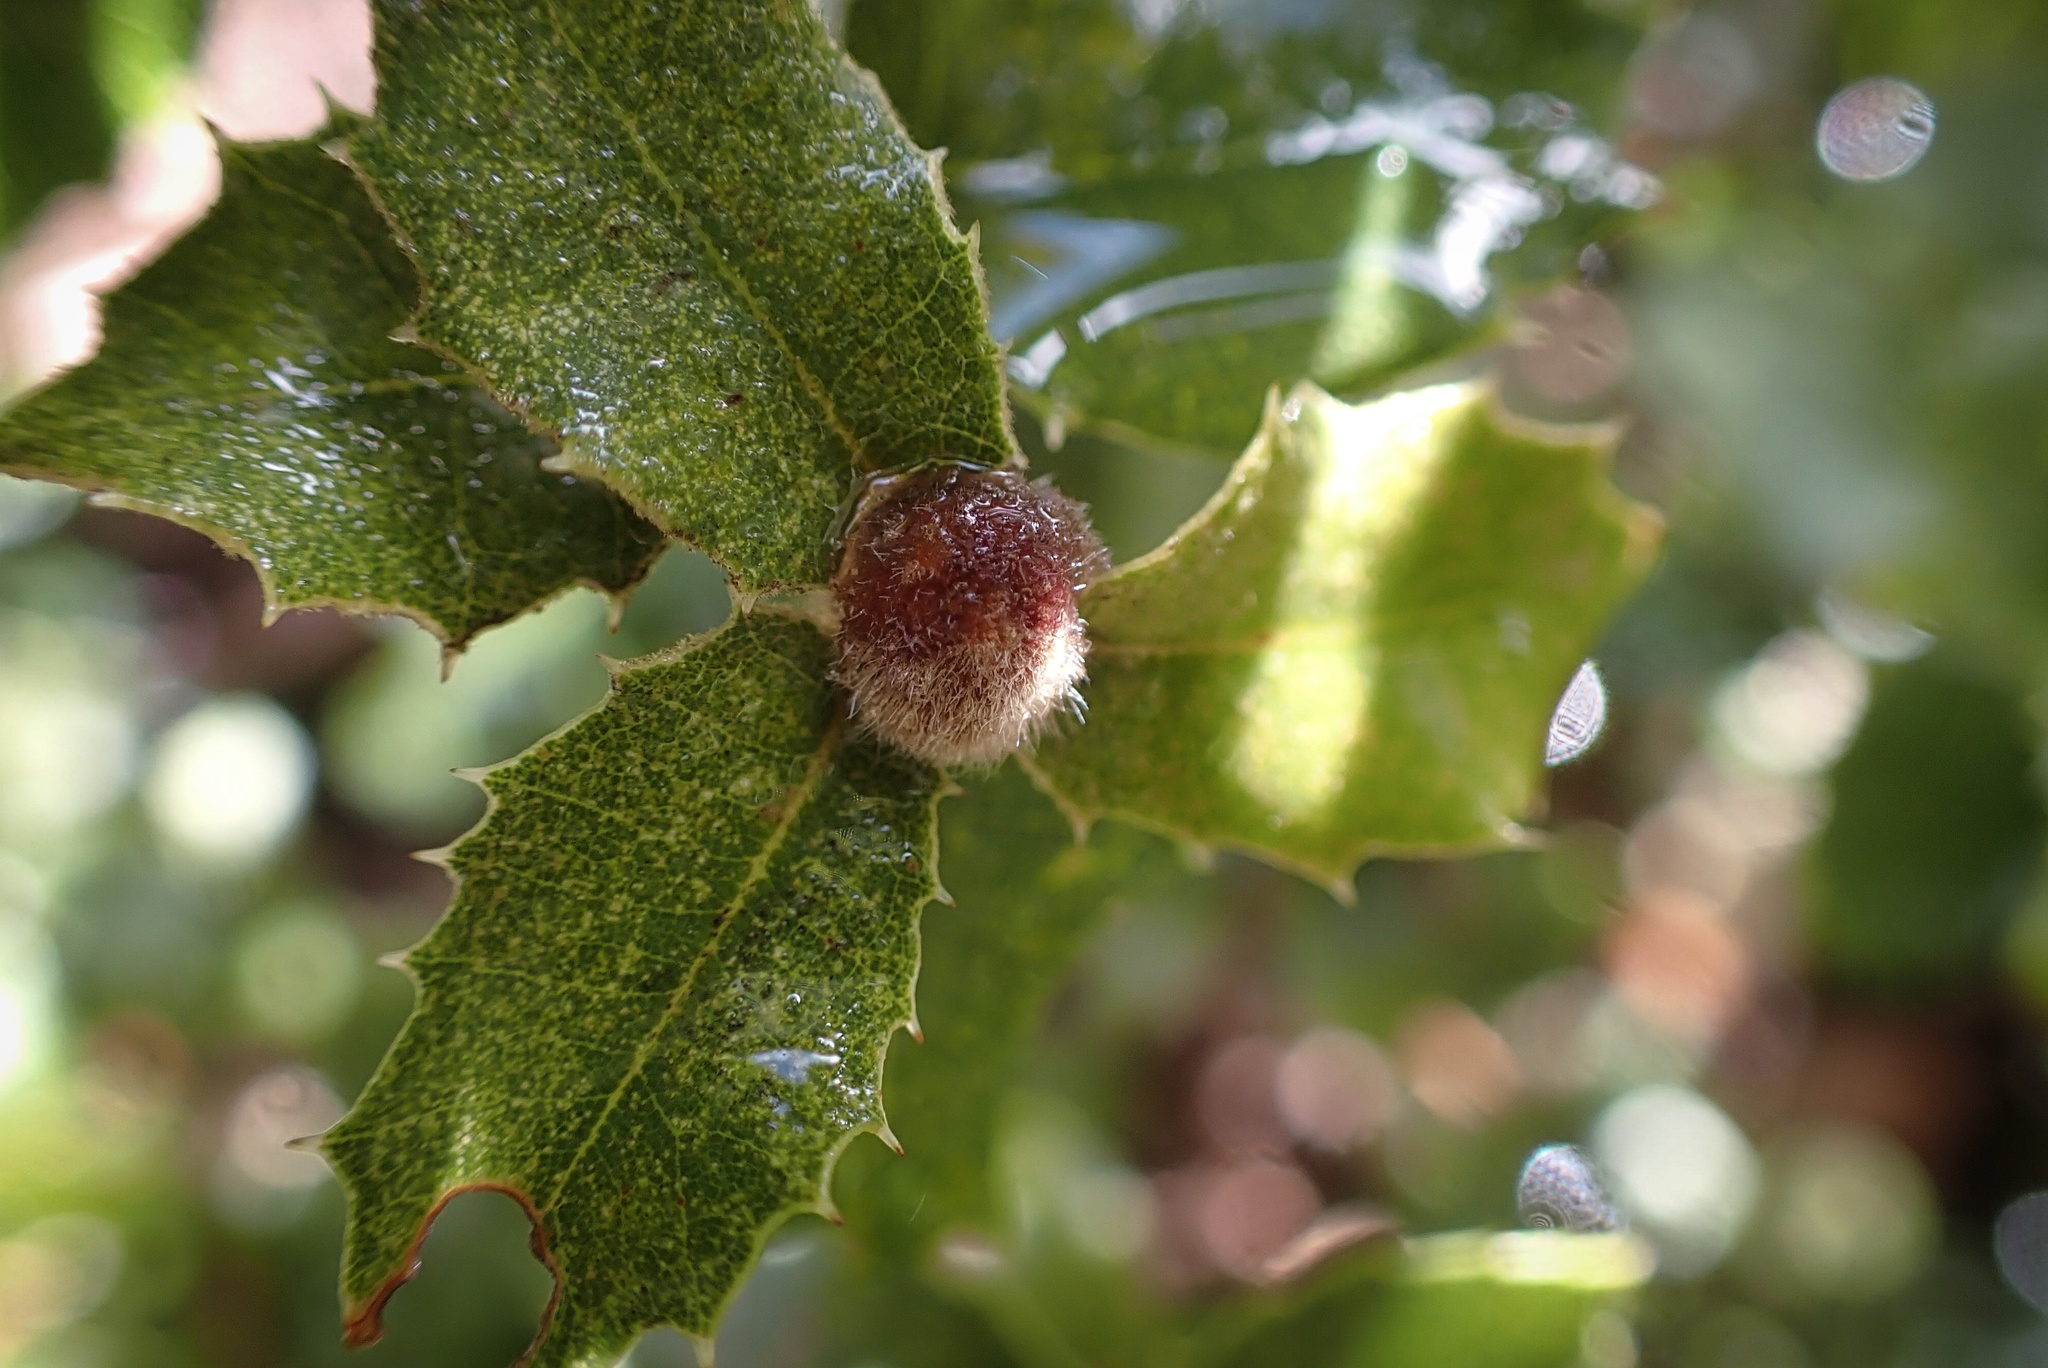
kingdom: Animalia
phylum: Arthropoda
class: Insecta
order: Hymenoptera
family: Cynipidae
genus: Disholandricus
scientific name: Disholandricus
